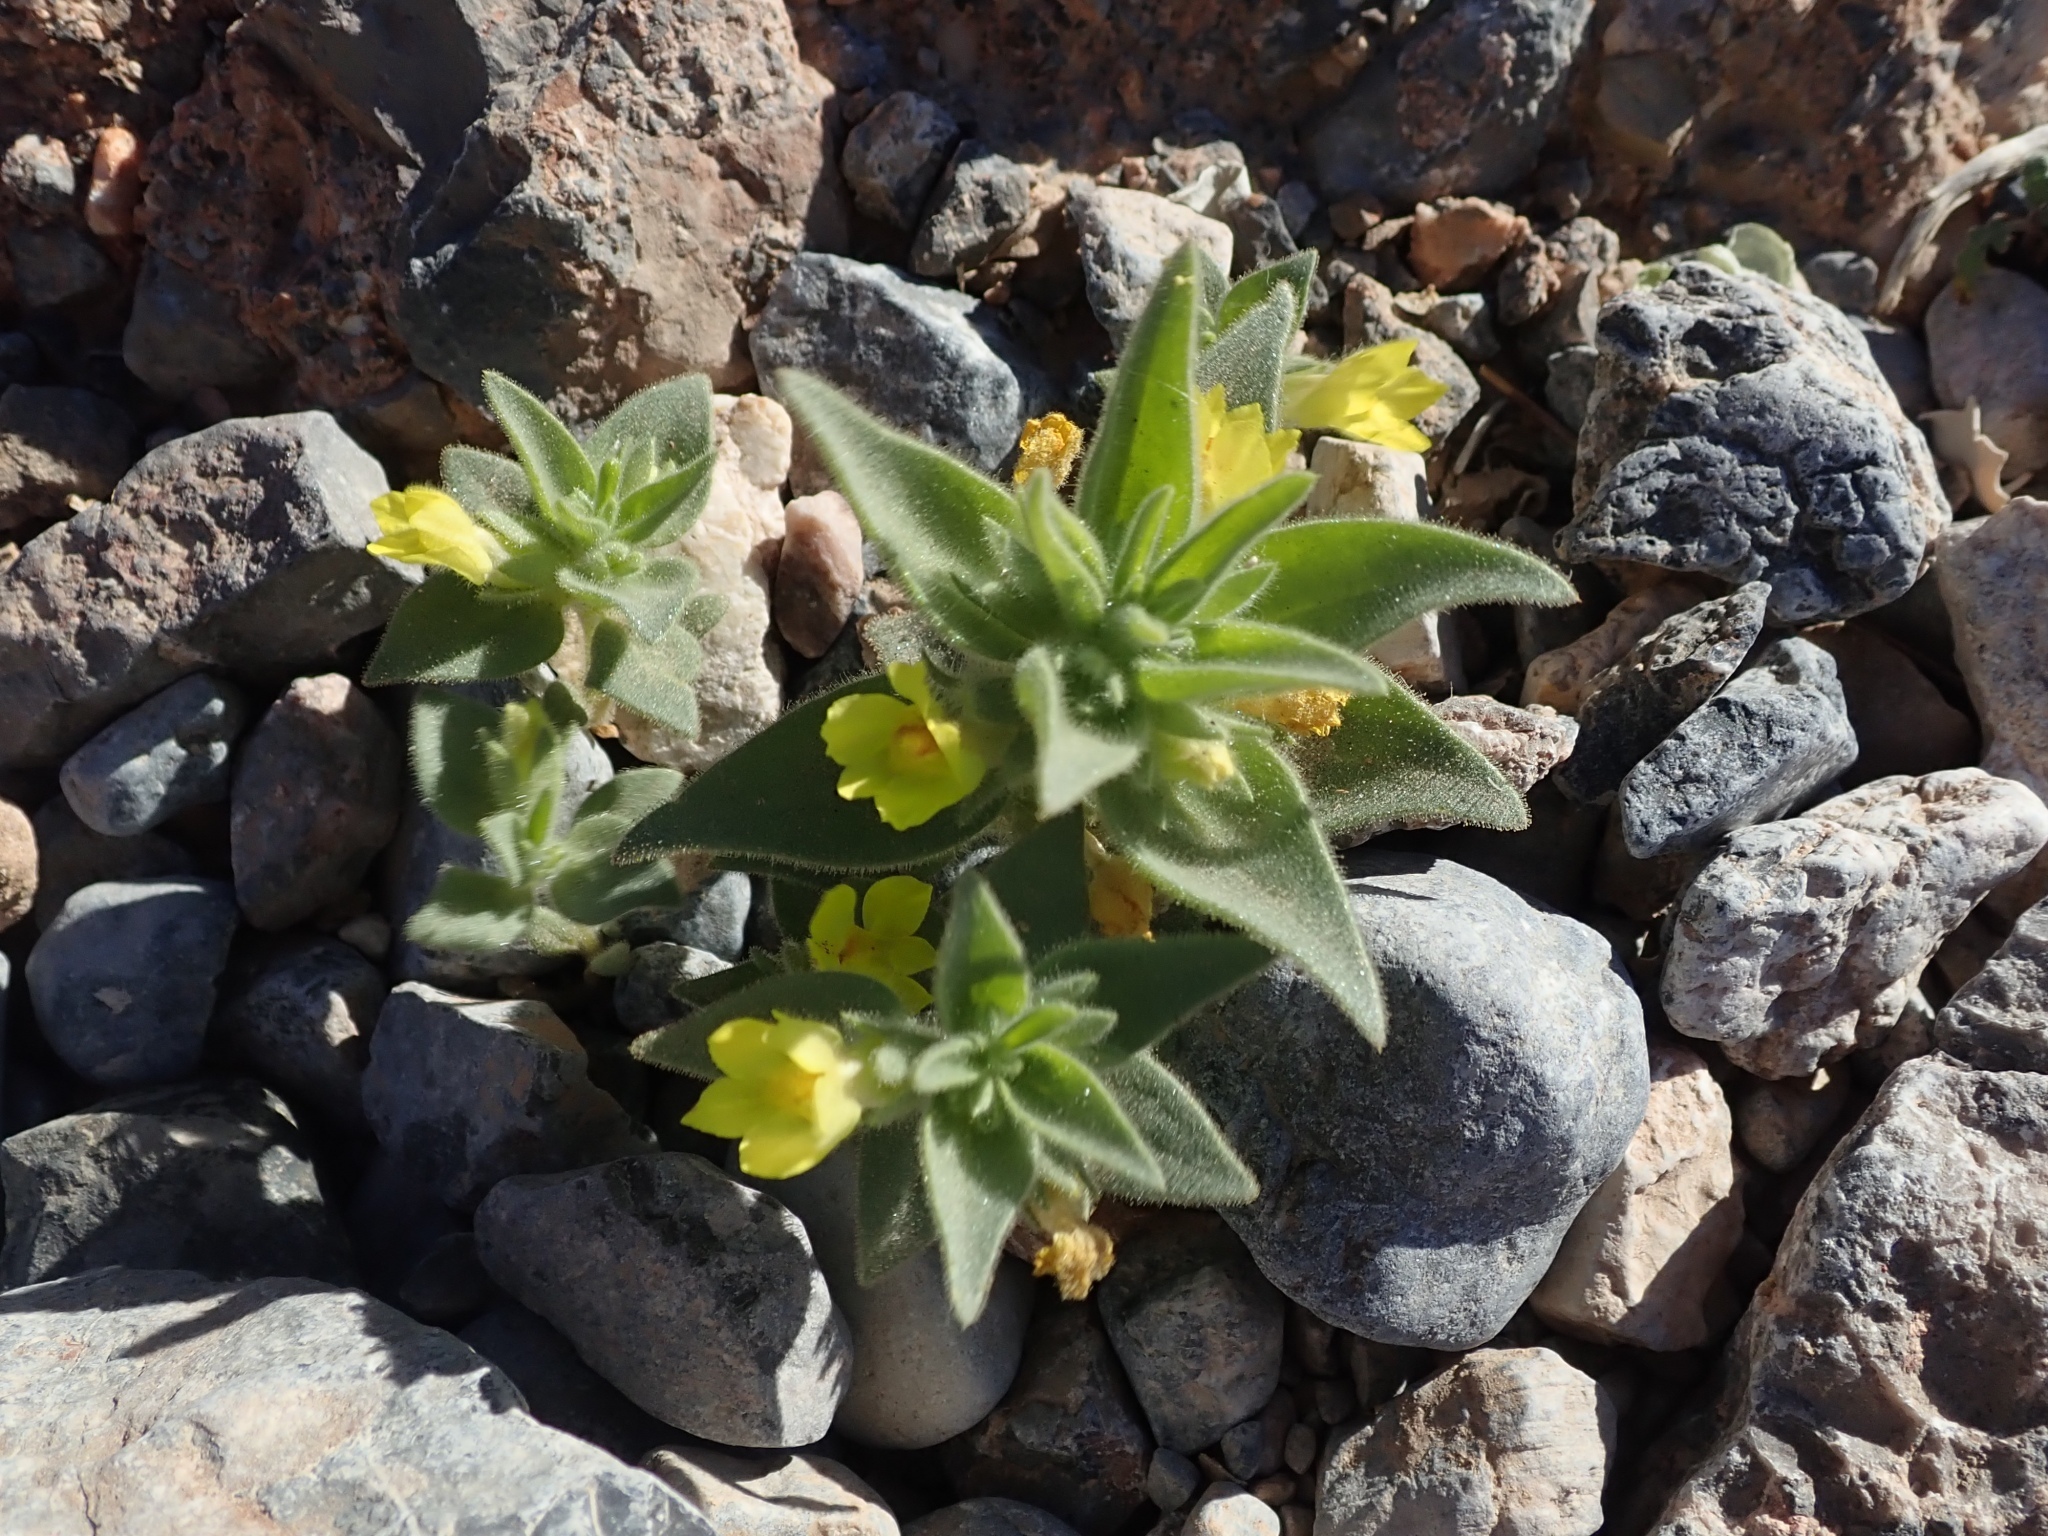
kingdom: Plantae
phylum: Tracheophyta
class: Magnoliopsida
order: Lamiales
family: Plantaginaceae
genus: Mohavea
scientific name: Mohavea breviflora
